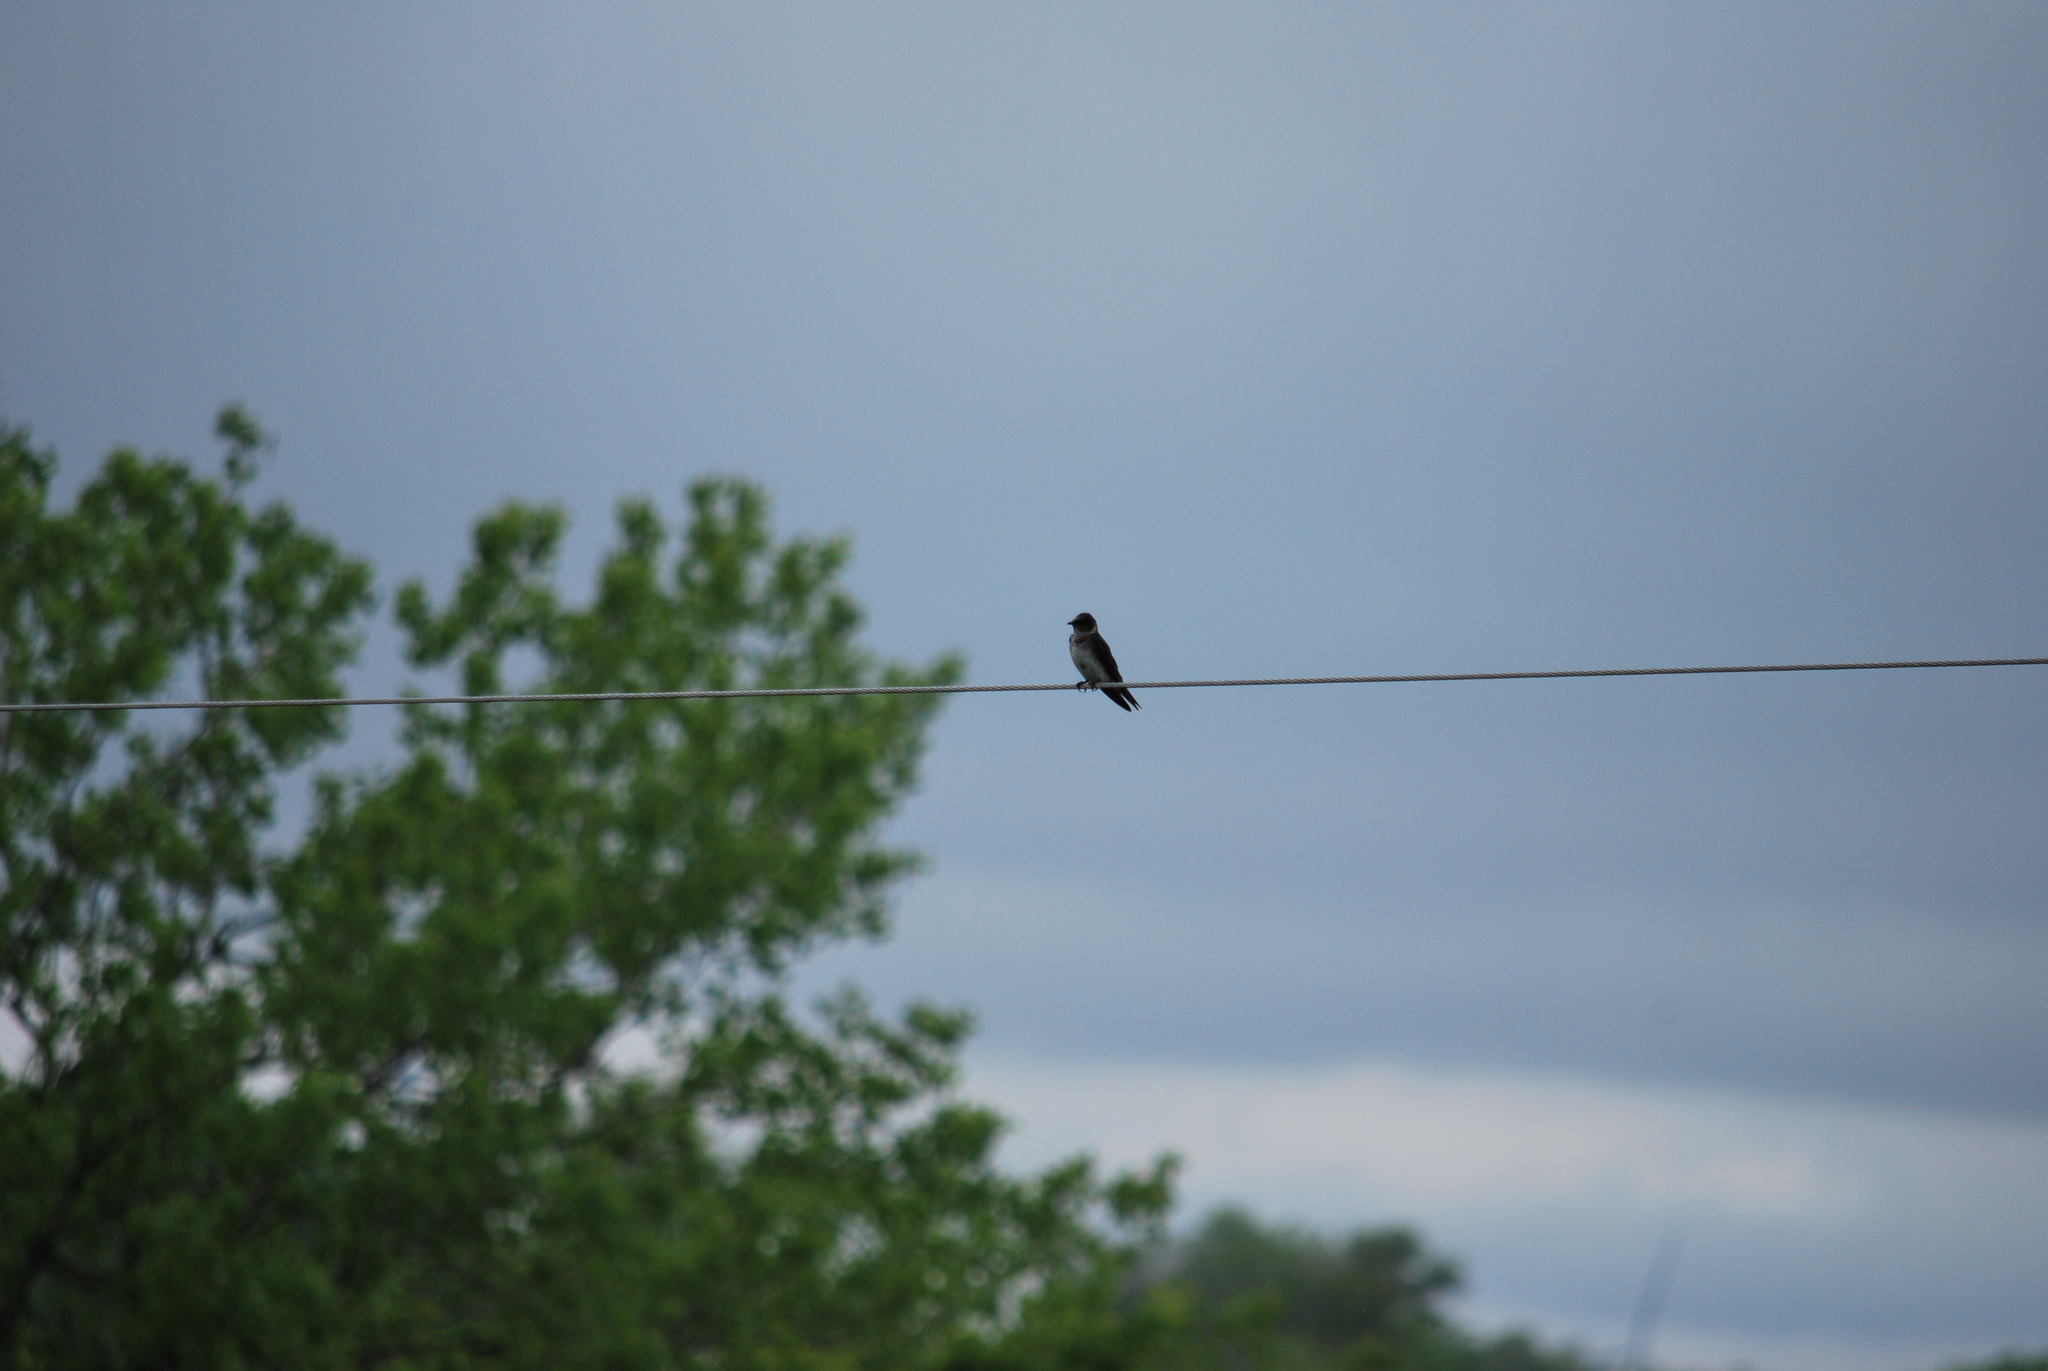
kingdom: Animalia
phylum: Chordata
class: Aves
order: Passeriformes
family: Hirundinidae
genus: Progne
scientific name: Progne subis
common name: Purple martin
